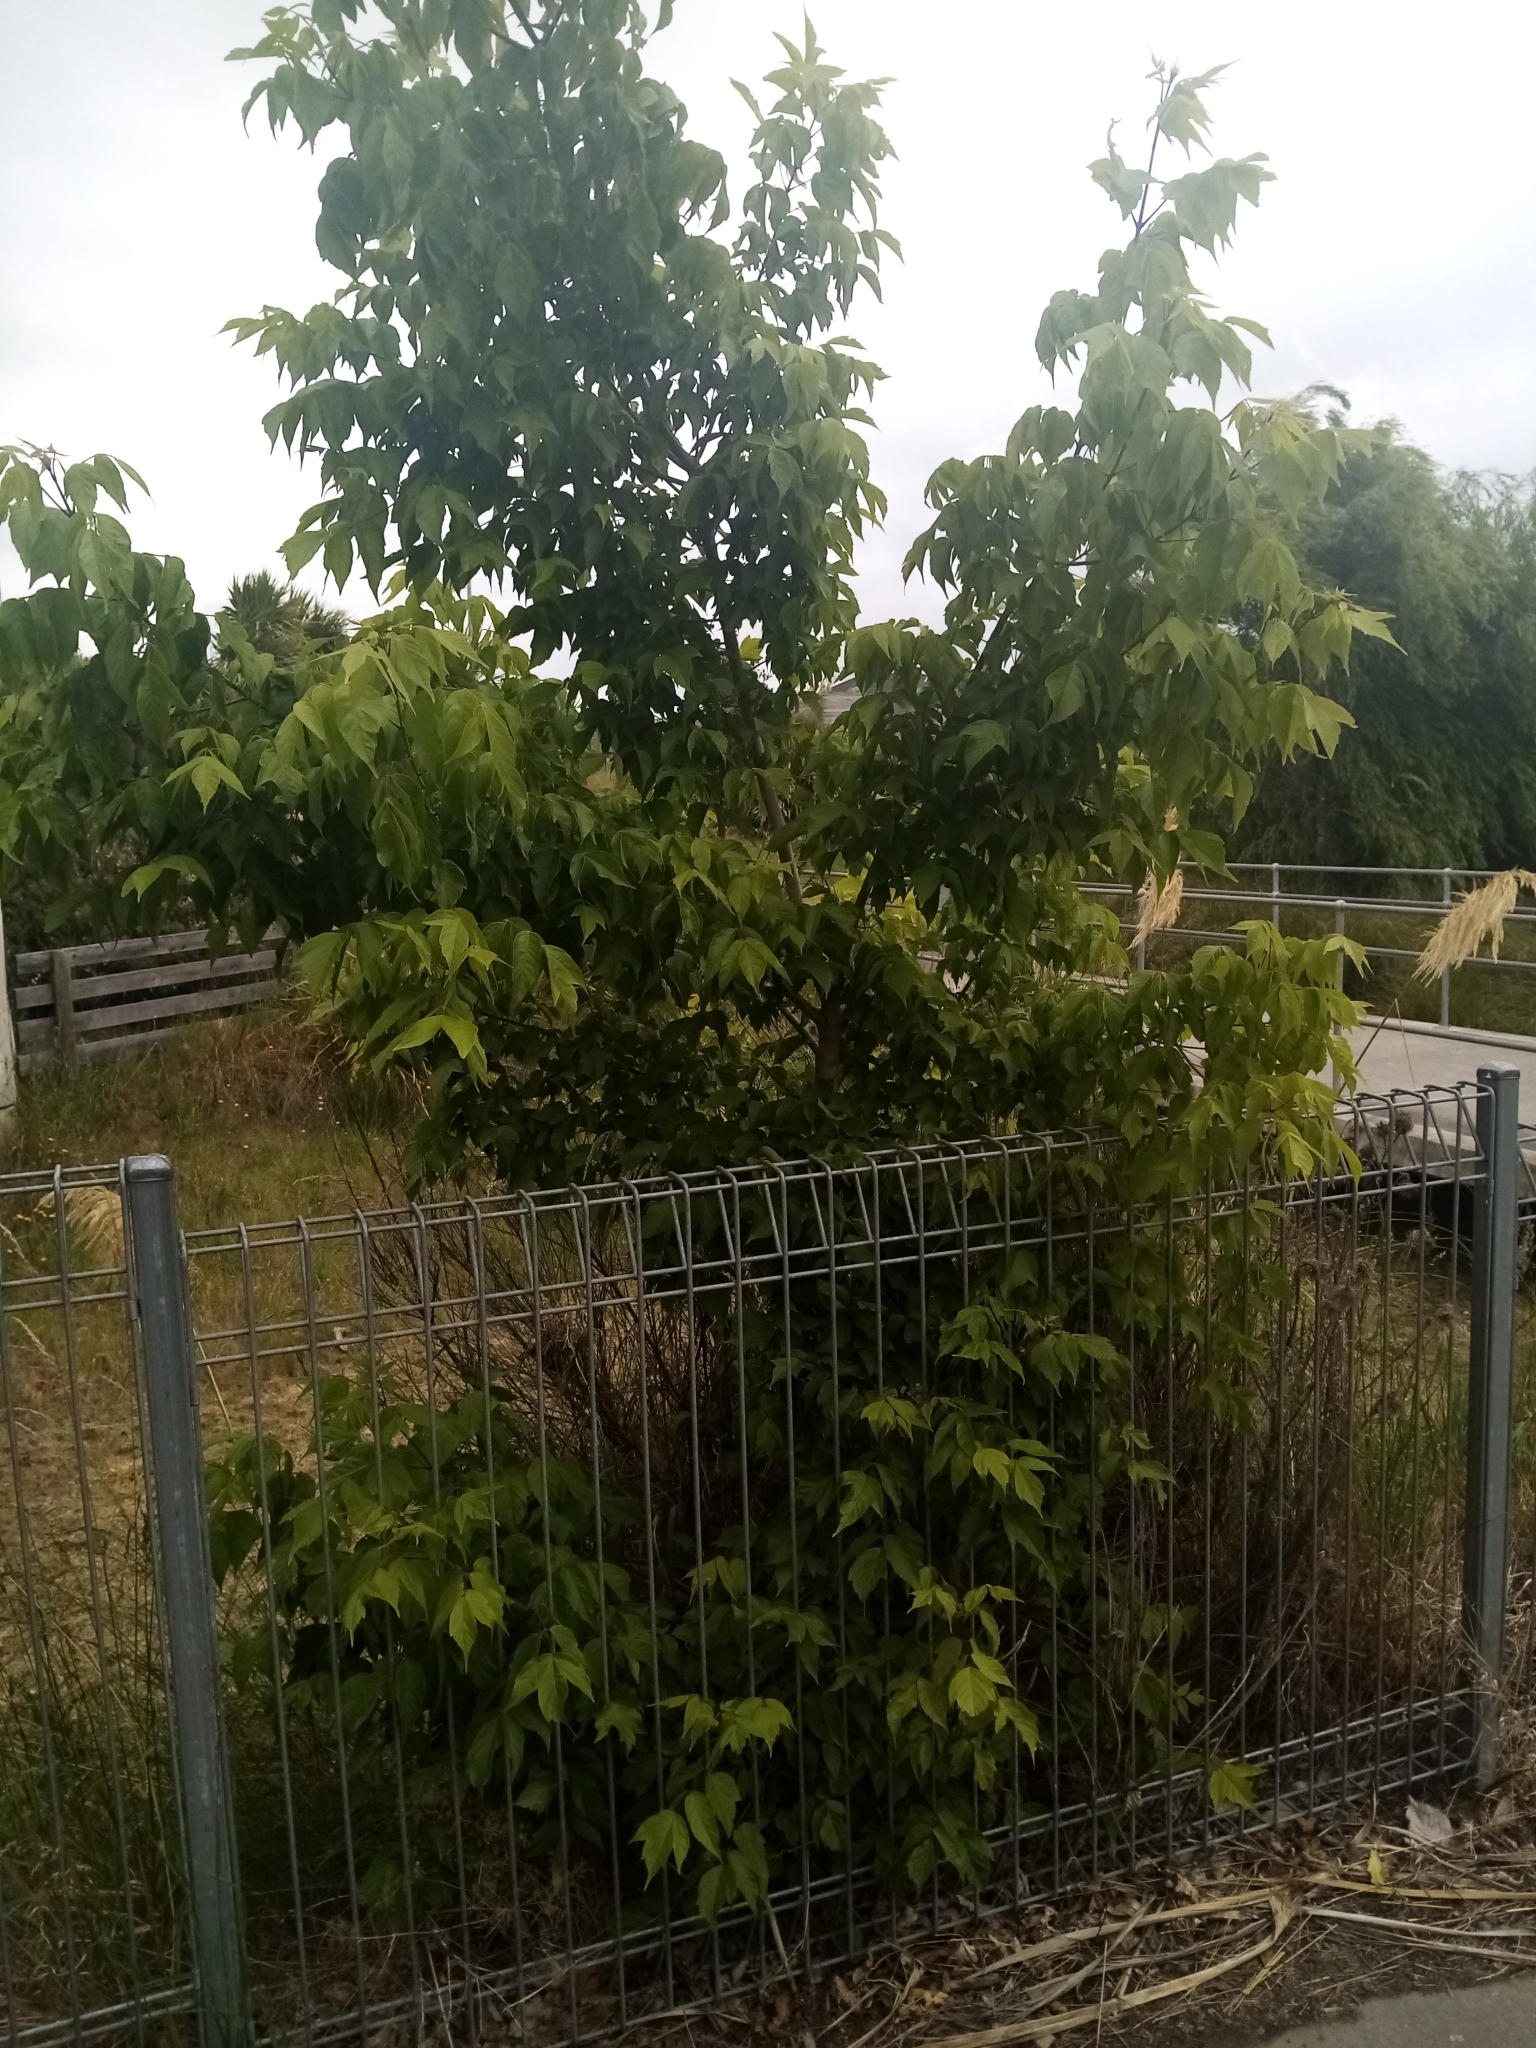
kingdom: Plantae
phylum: Tracheophyta
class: Magnoliopsida
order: Sapindales
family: Sapindaceae
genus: Acer
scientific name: Acer negundo
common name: Ashleaf maple
